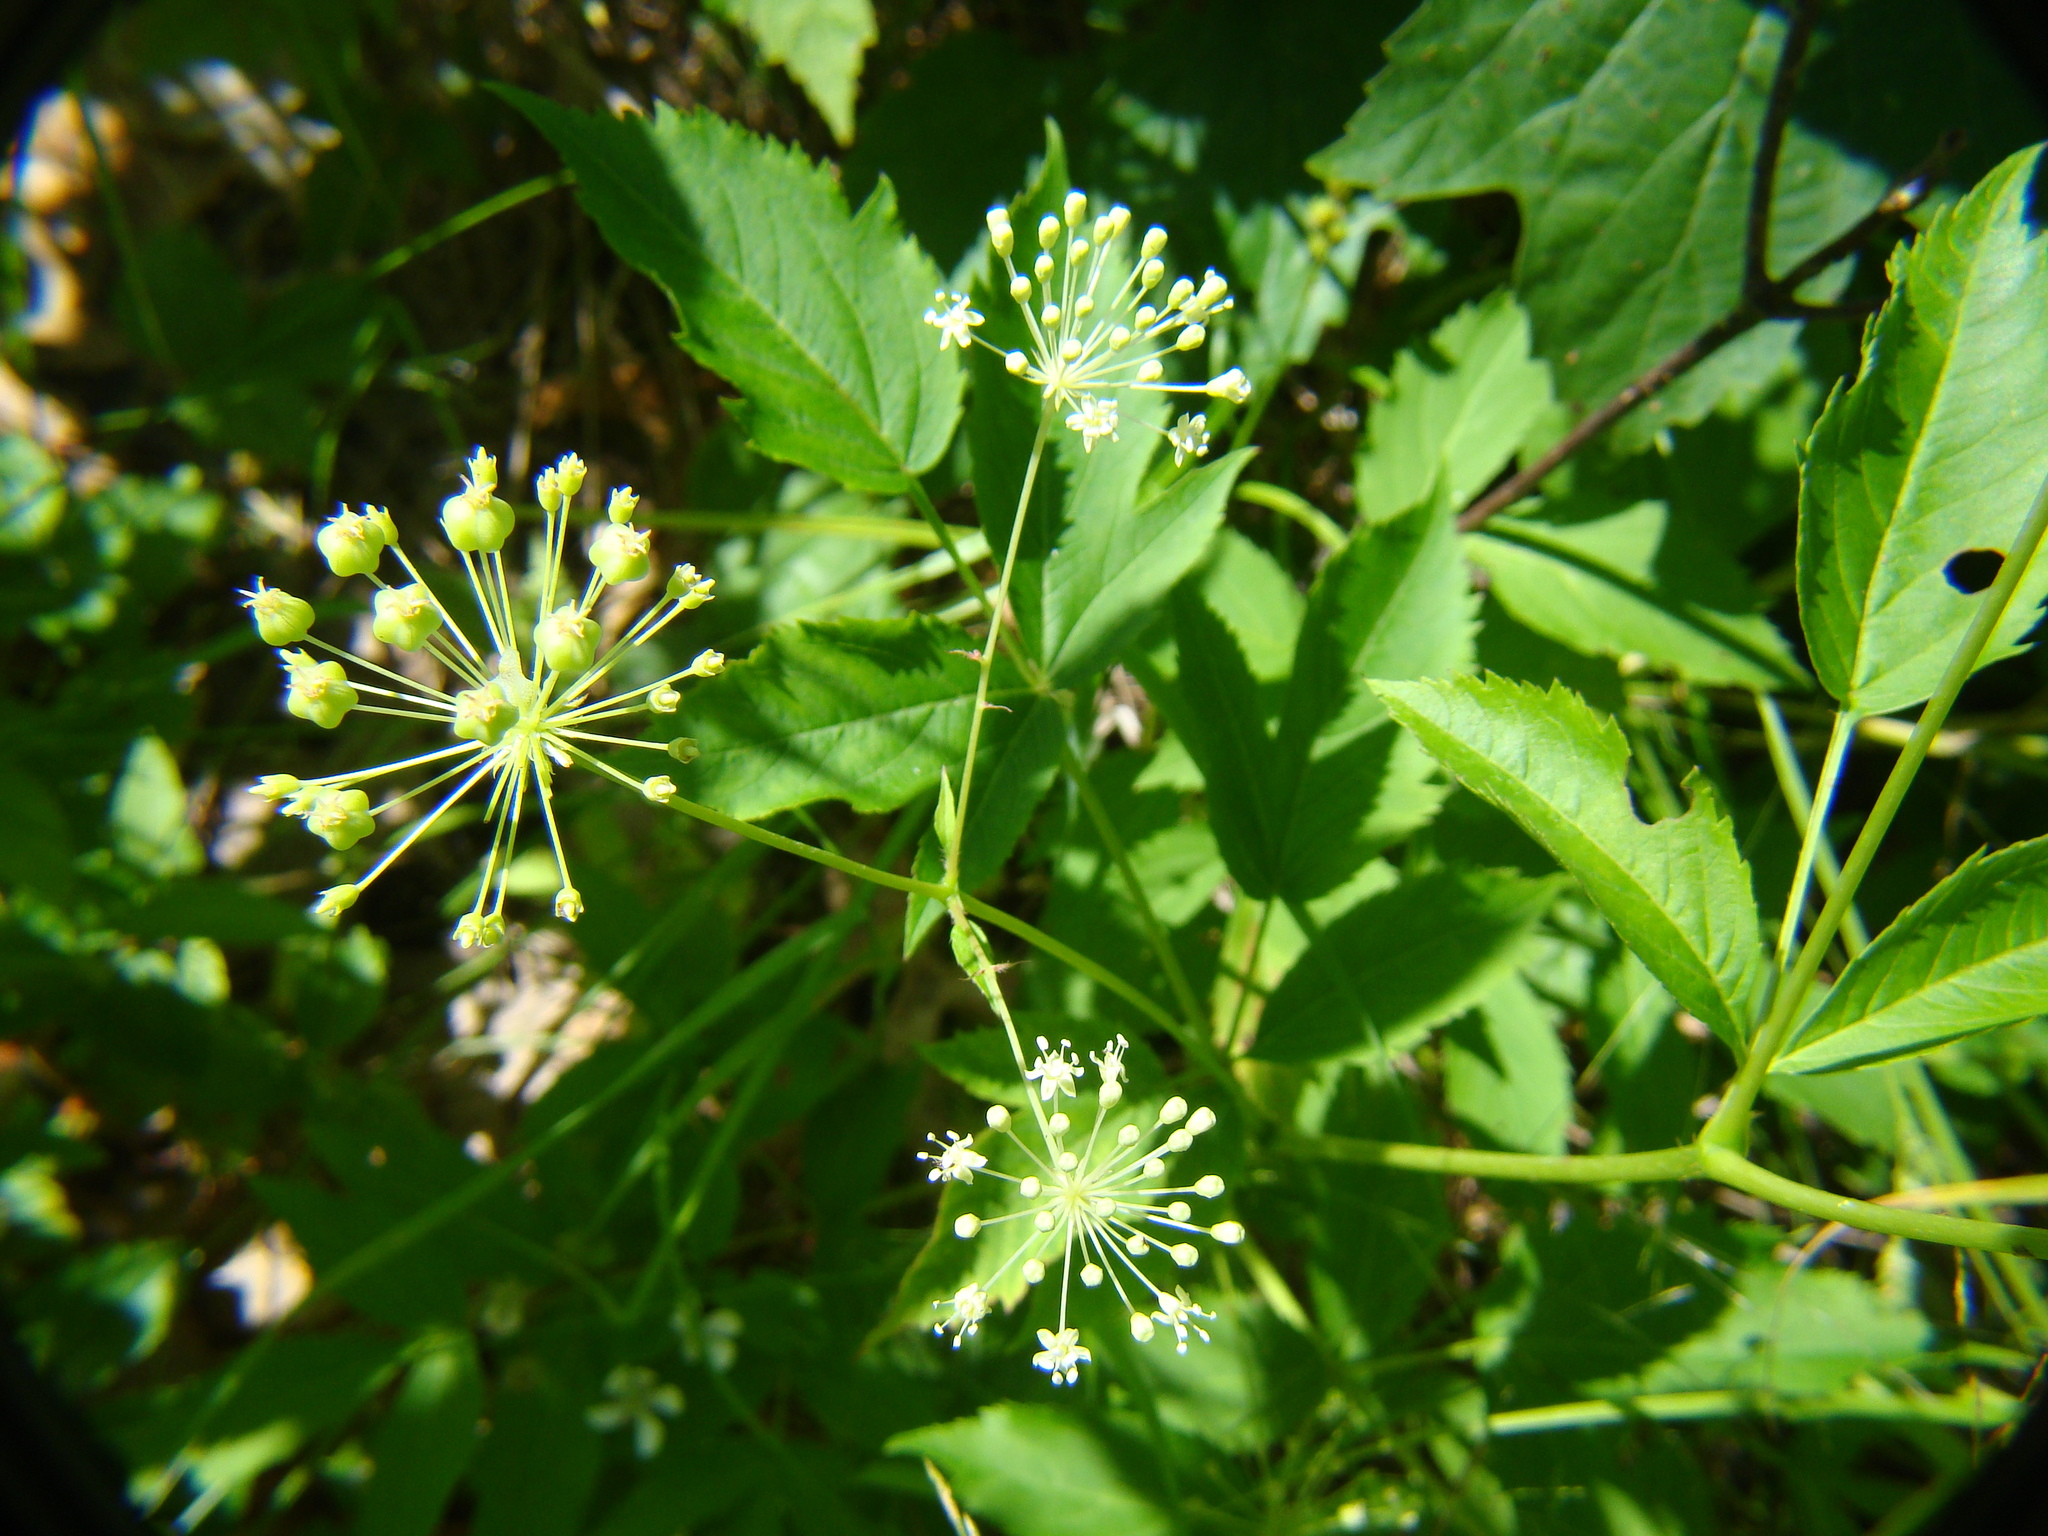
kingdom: Plantae
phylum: Tracheophyta
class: Magnoliopsida
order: Apiales
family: Araliaceae
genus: Aralia
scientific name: Aralia hispida
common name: Bristly sarsaparilla
